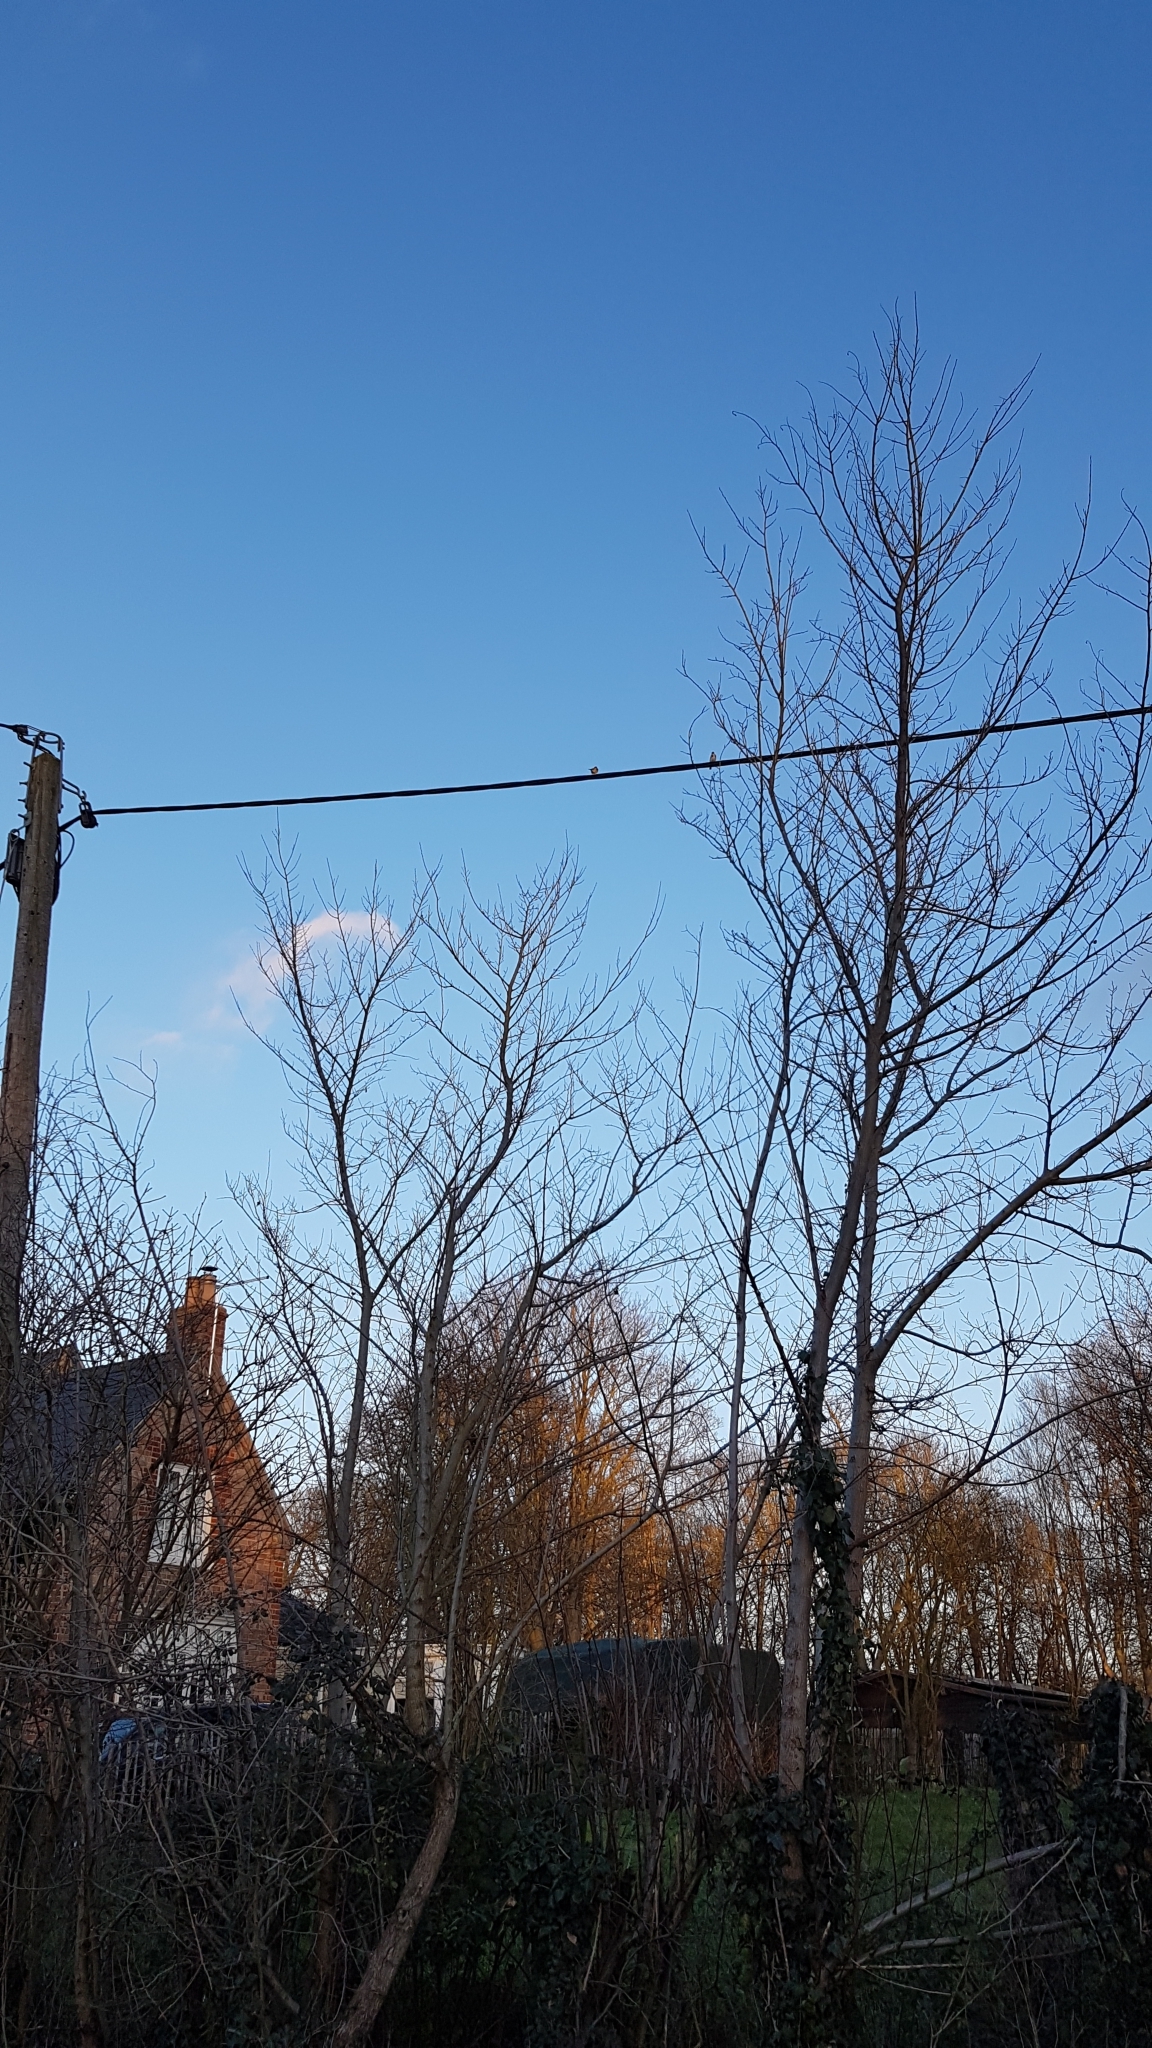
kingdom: Animalia
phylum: Chordata
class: Aves
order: Passeriformes
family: Fringillidae
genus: Carduelis
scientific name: Carduelis carduelis
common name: European goldfinch
